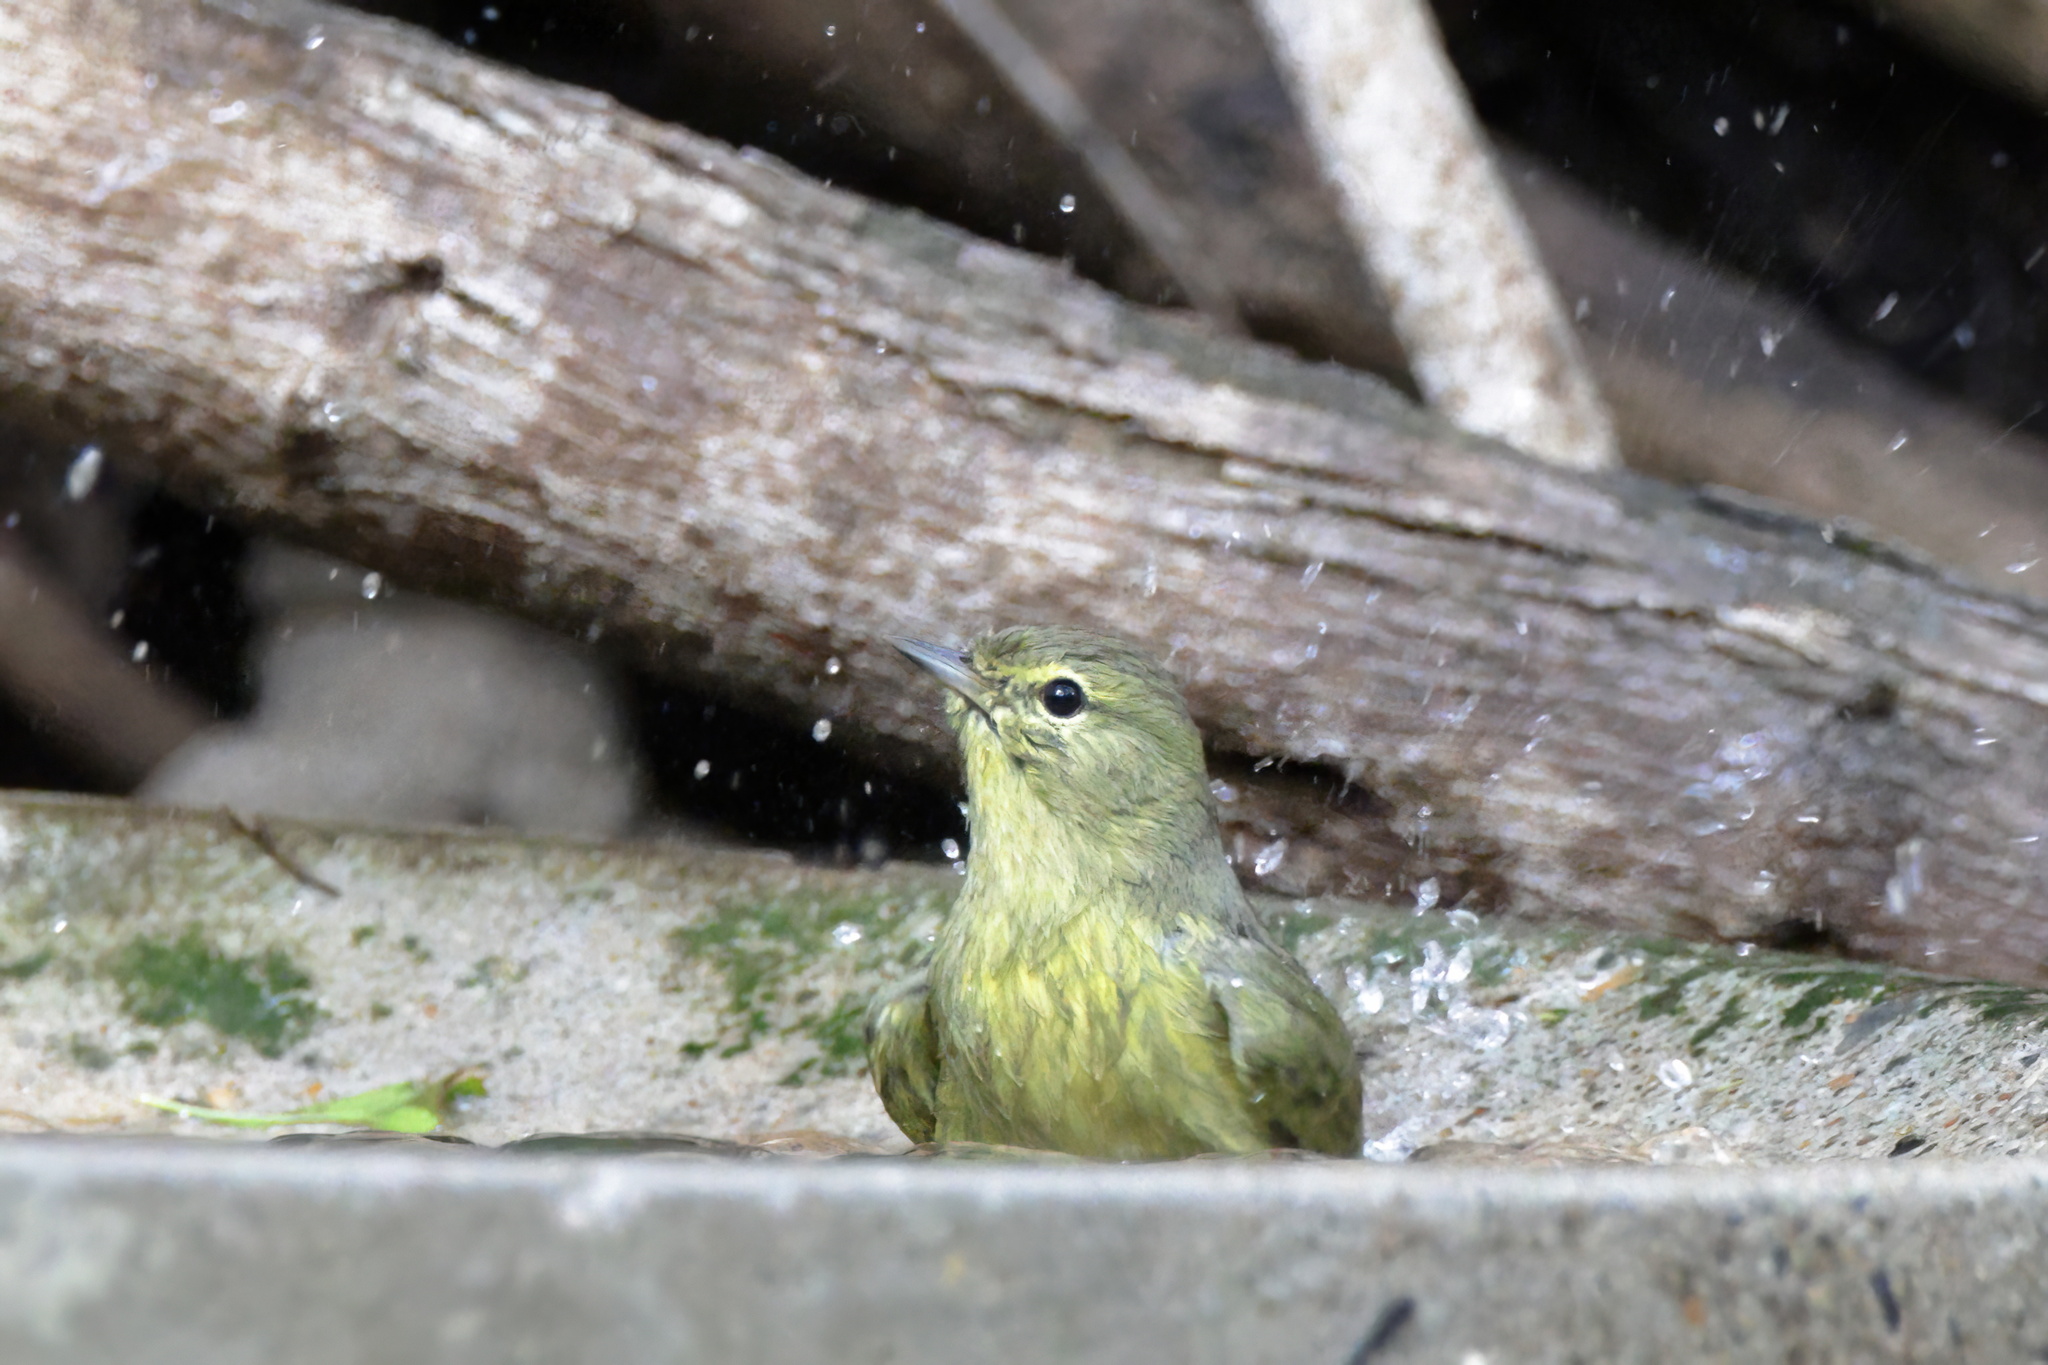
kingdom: Animalia
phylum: Chordata
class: Aves
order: Passeriformes
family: Parulidae
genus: Leiothlypis
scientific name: Leiothlypis celata
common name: Orange-crowned warbler
